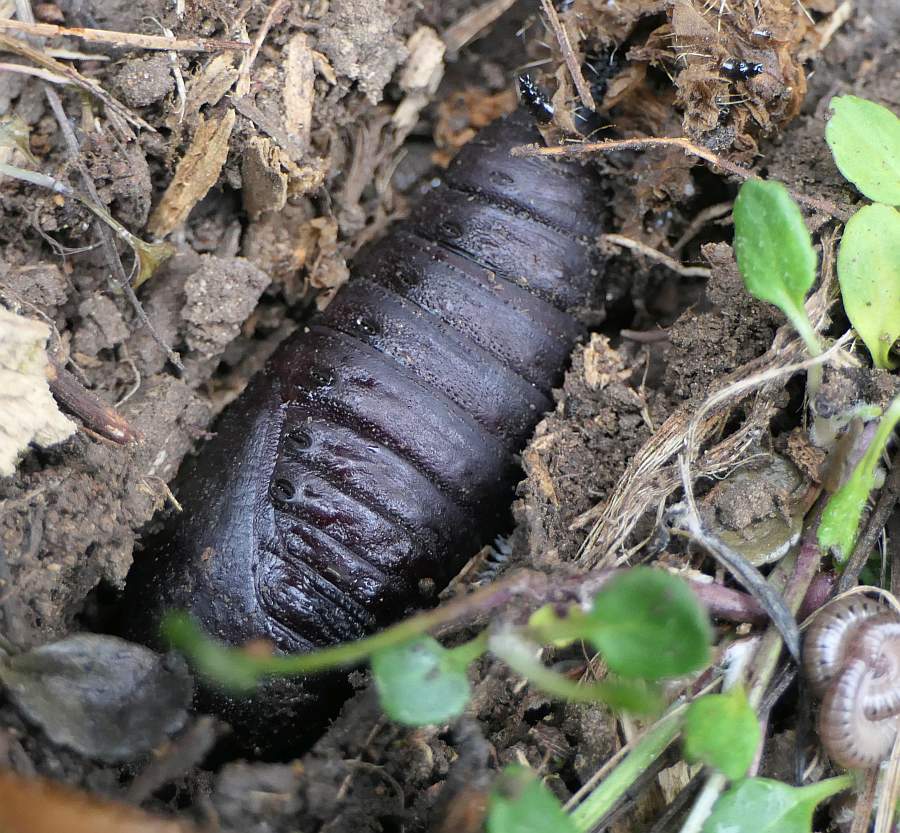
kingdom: Animalia
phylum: Arthropoda
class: Insecta
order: Lepidoptera
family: Saturniidae
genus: Eacles
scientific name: Eacles
